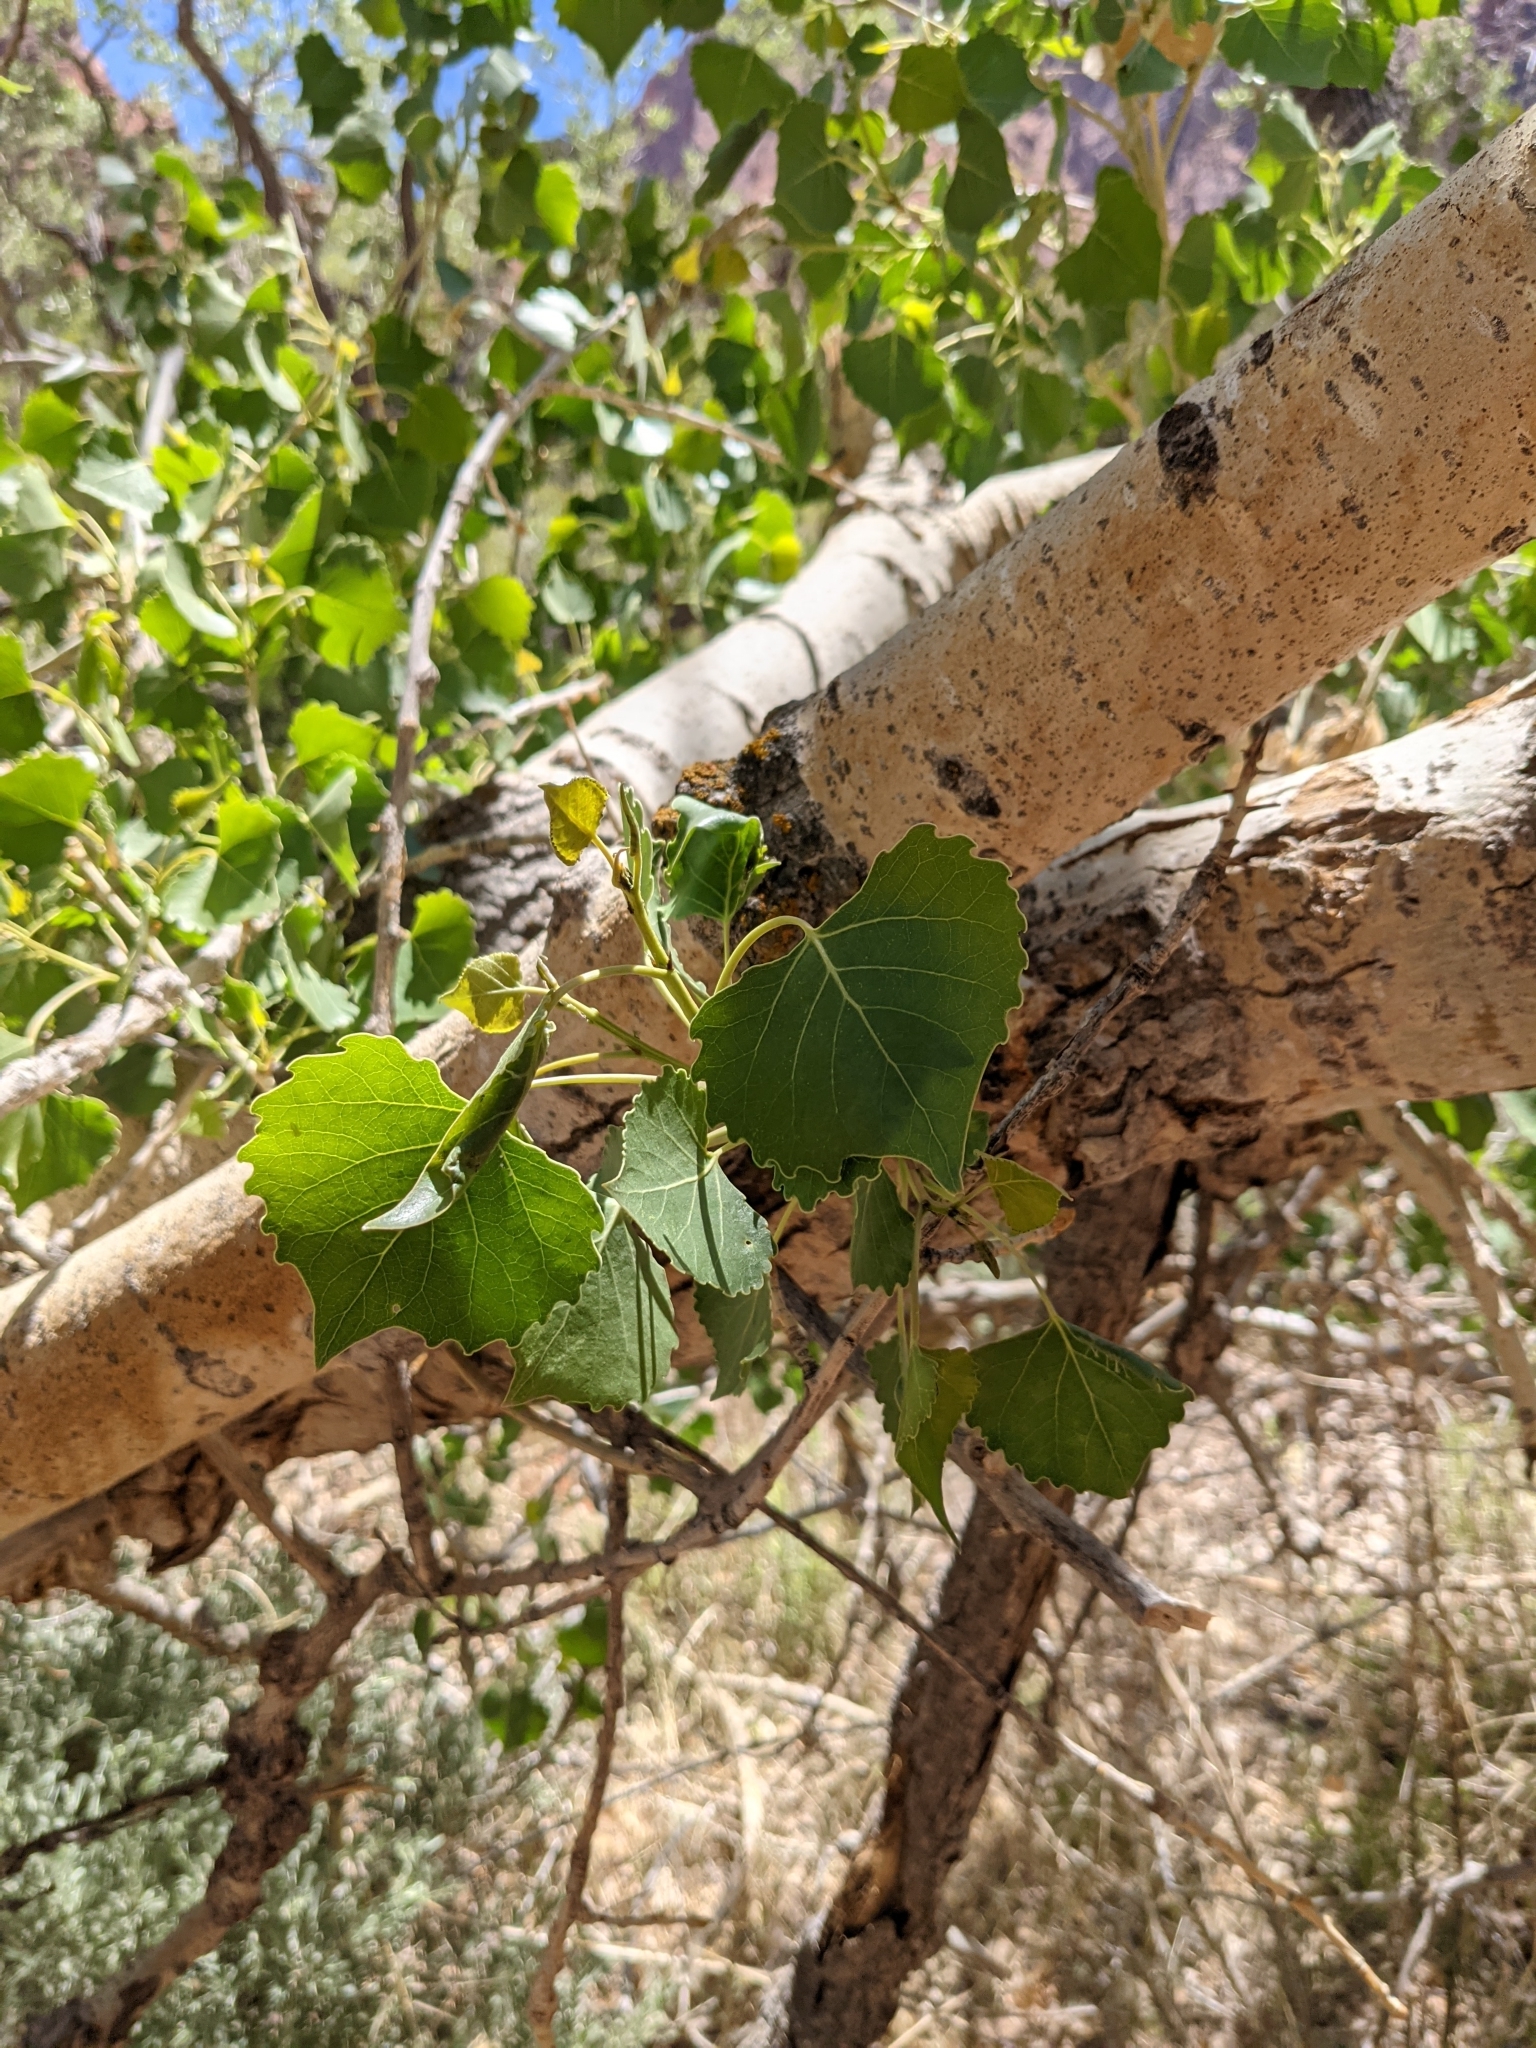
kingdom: Plantae
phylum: Tracheophyta
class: Magnoliopsida
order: Malpighiales
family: Salicaceae
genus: Populus
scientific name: Populus fremontii
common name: Fremont's cottonwood
